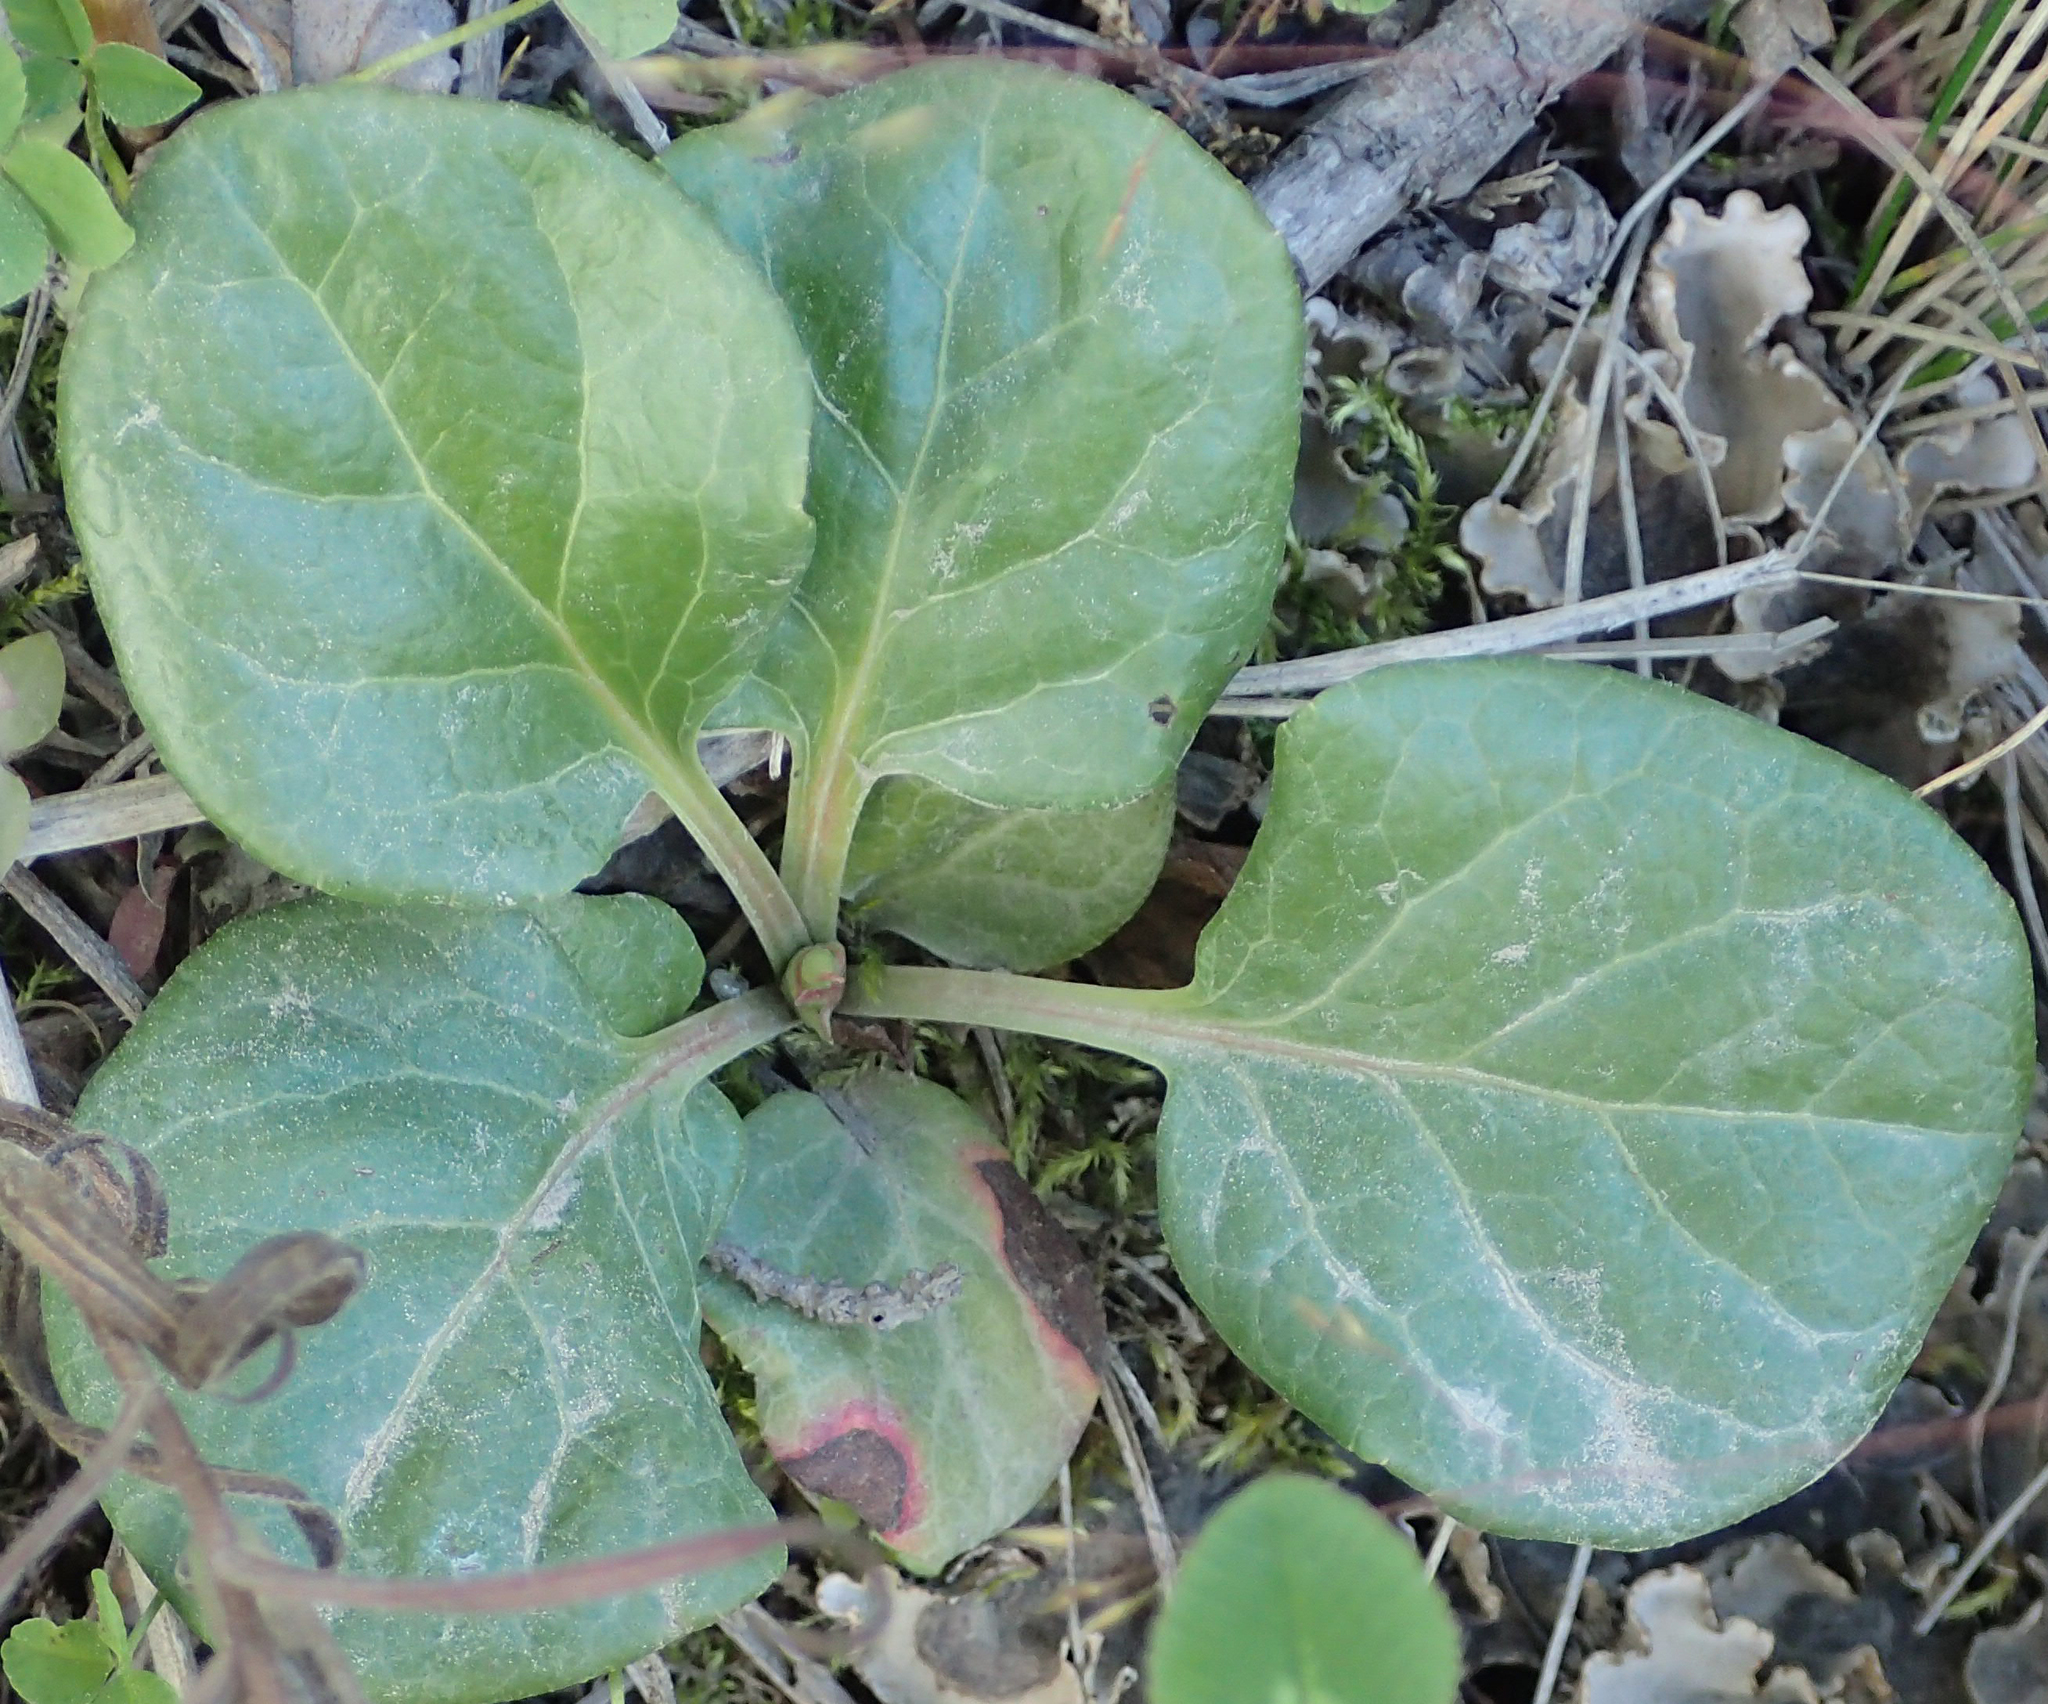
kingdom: Plantae
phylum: Tracheophyta
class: Magnoliopsida
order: Ericales
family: Ericaceae
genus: Pyrola
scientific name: Pyrola asarifolia
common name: Bog wintergreen
